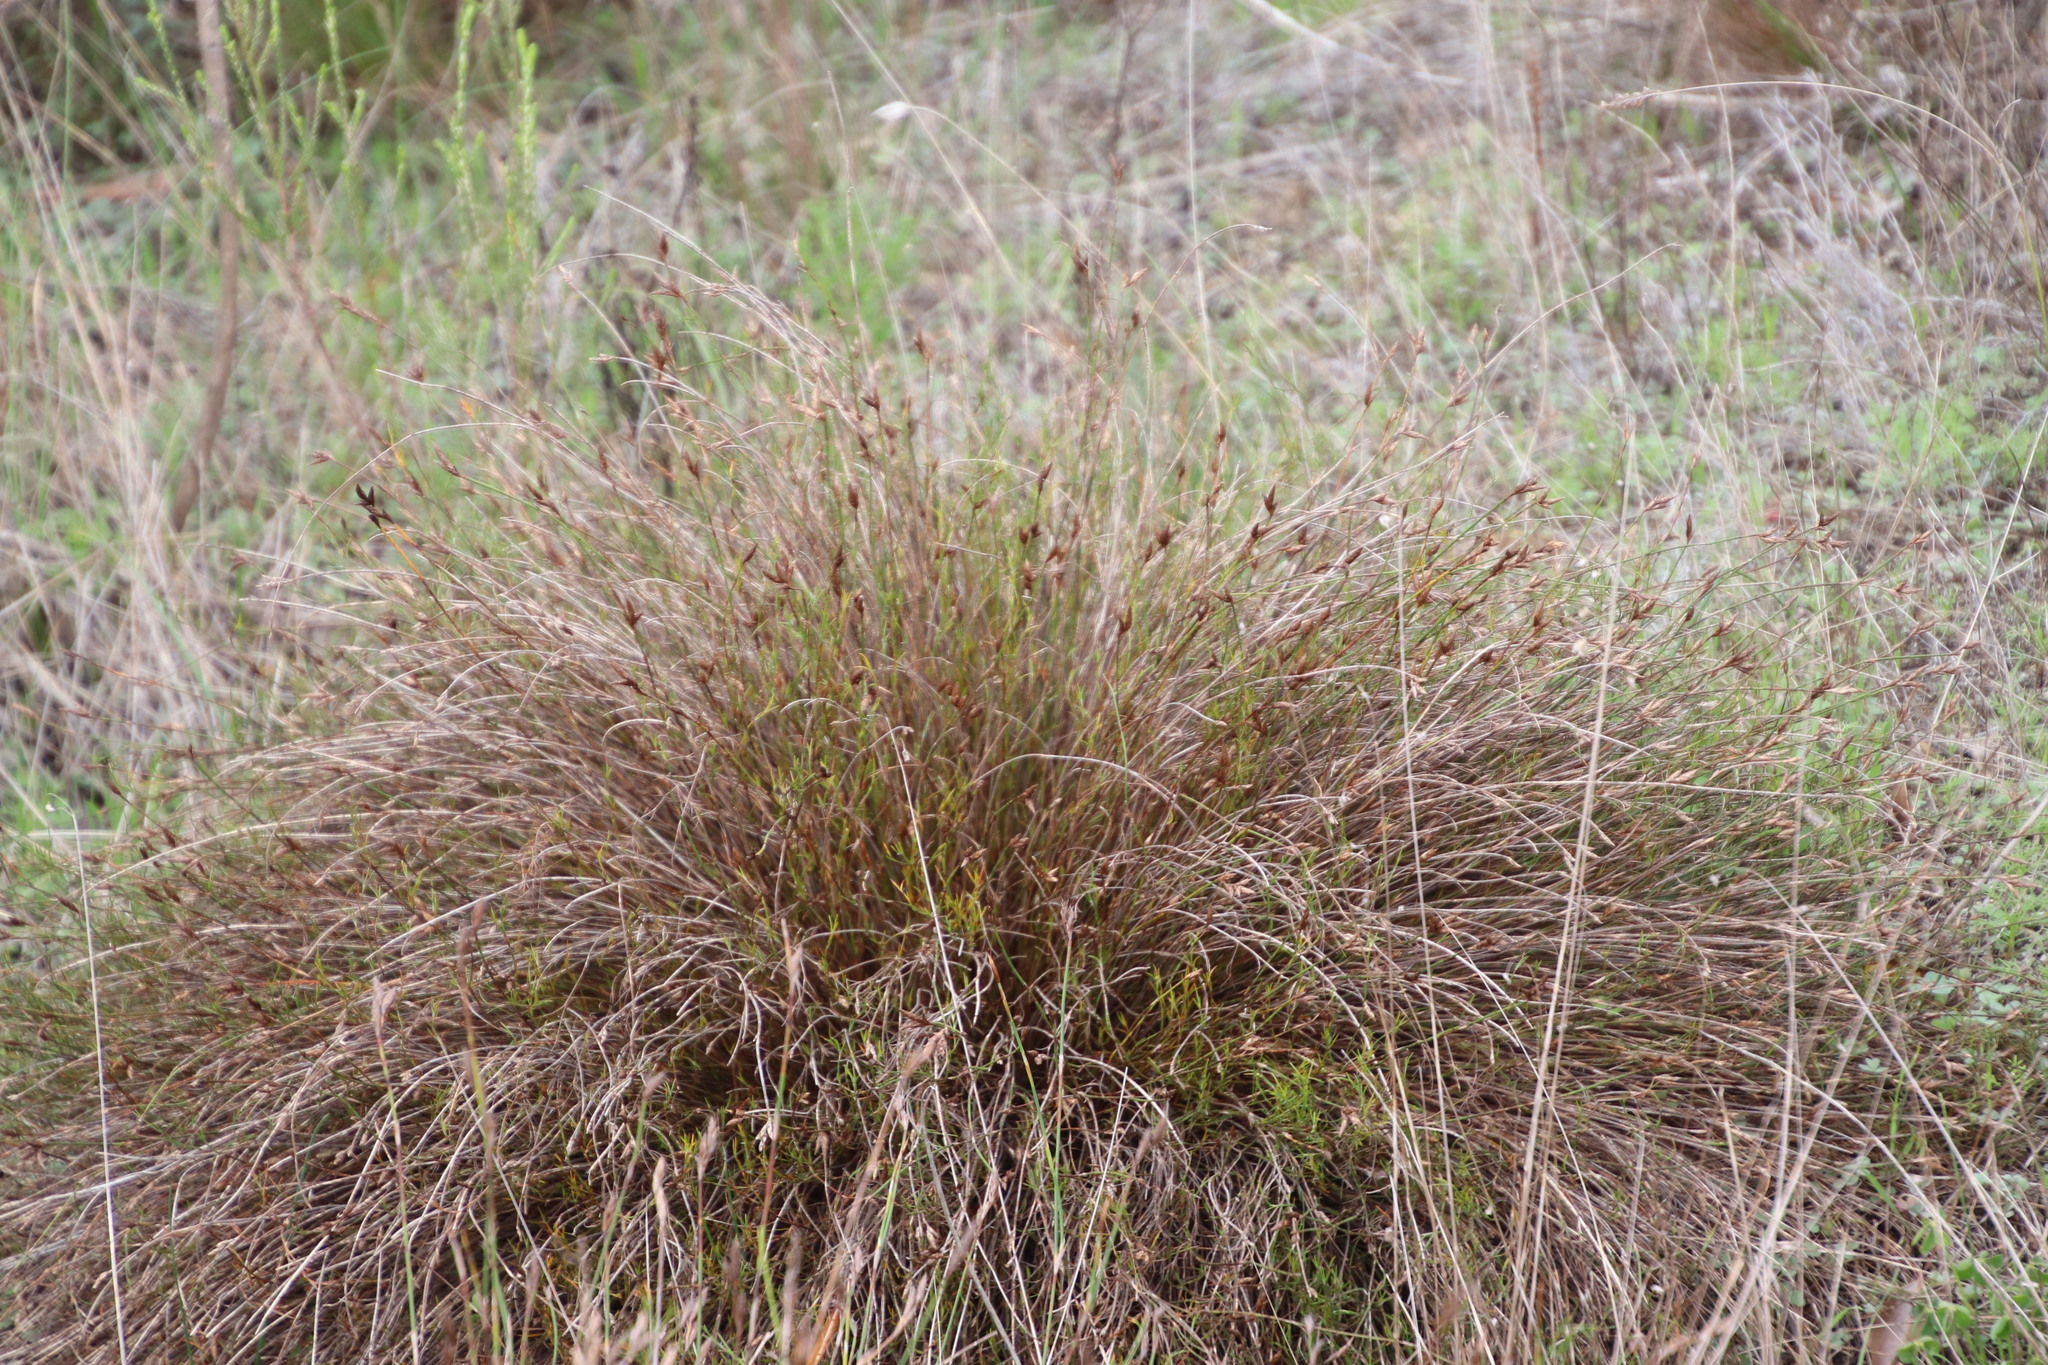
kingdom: Plantae
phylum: Tracheophyta
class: Liliopsida
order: Poales
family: Restionaceae
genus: Restio
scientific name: Restio capensis
